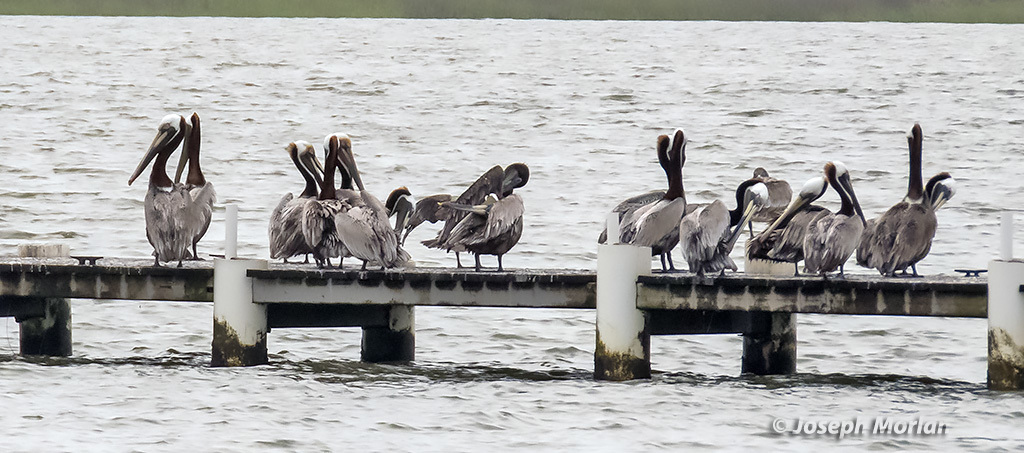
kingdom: Animalia
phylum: Chordata
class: Aves
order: Pelecaniformes
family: Pelecanidae
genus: Pelecanus
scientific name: Pelecanus occidentalis
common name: Brown pelican
